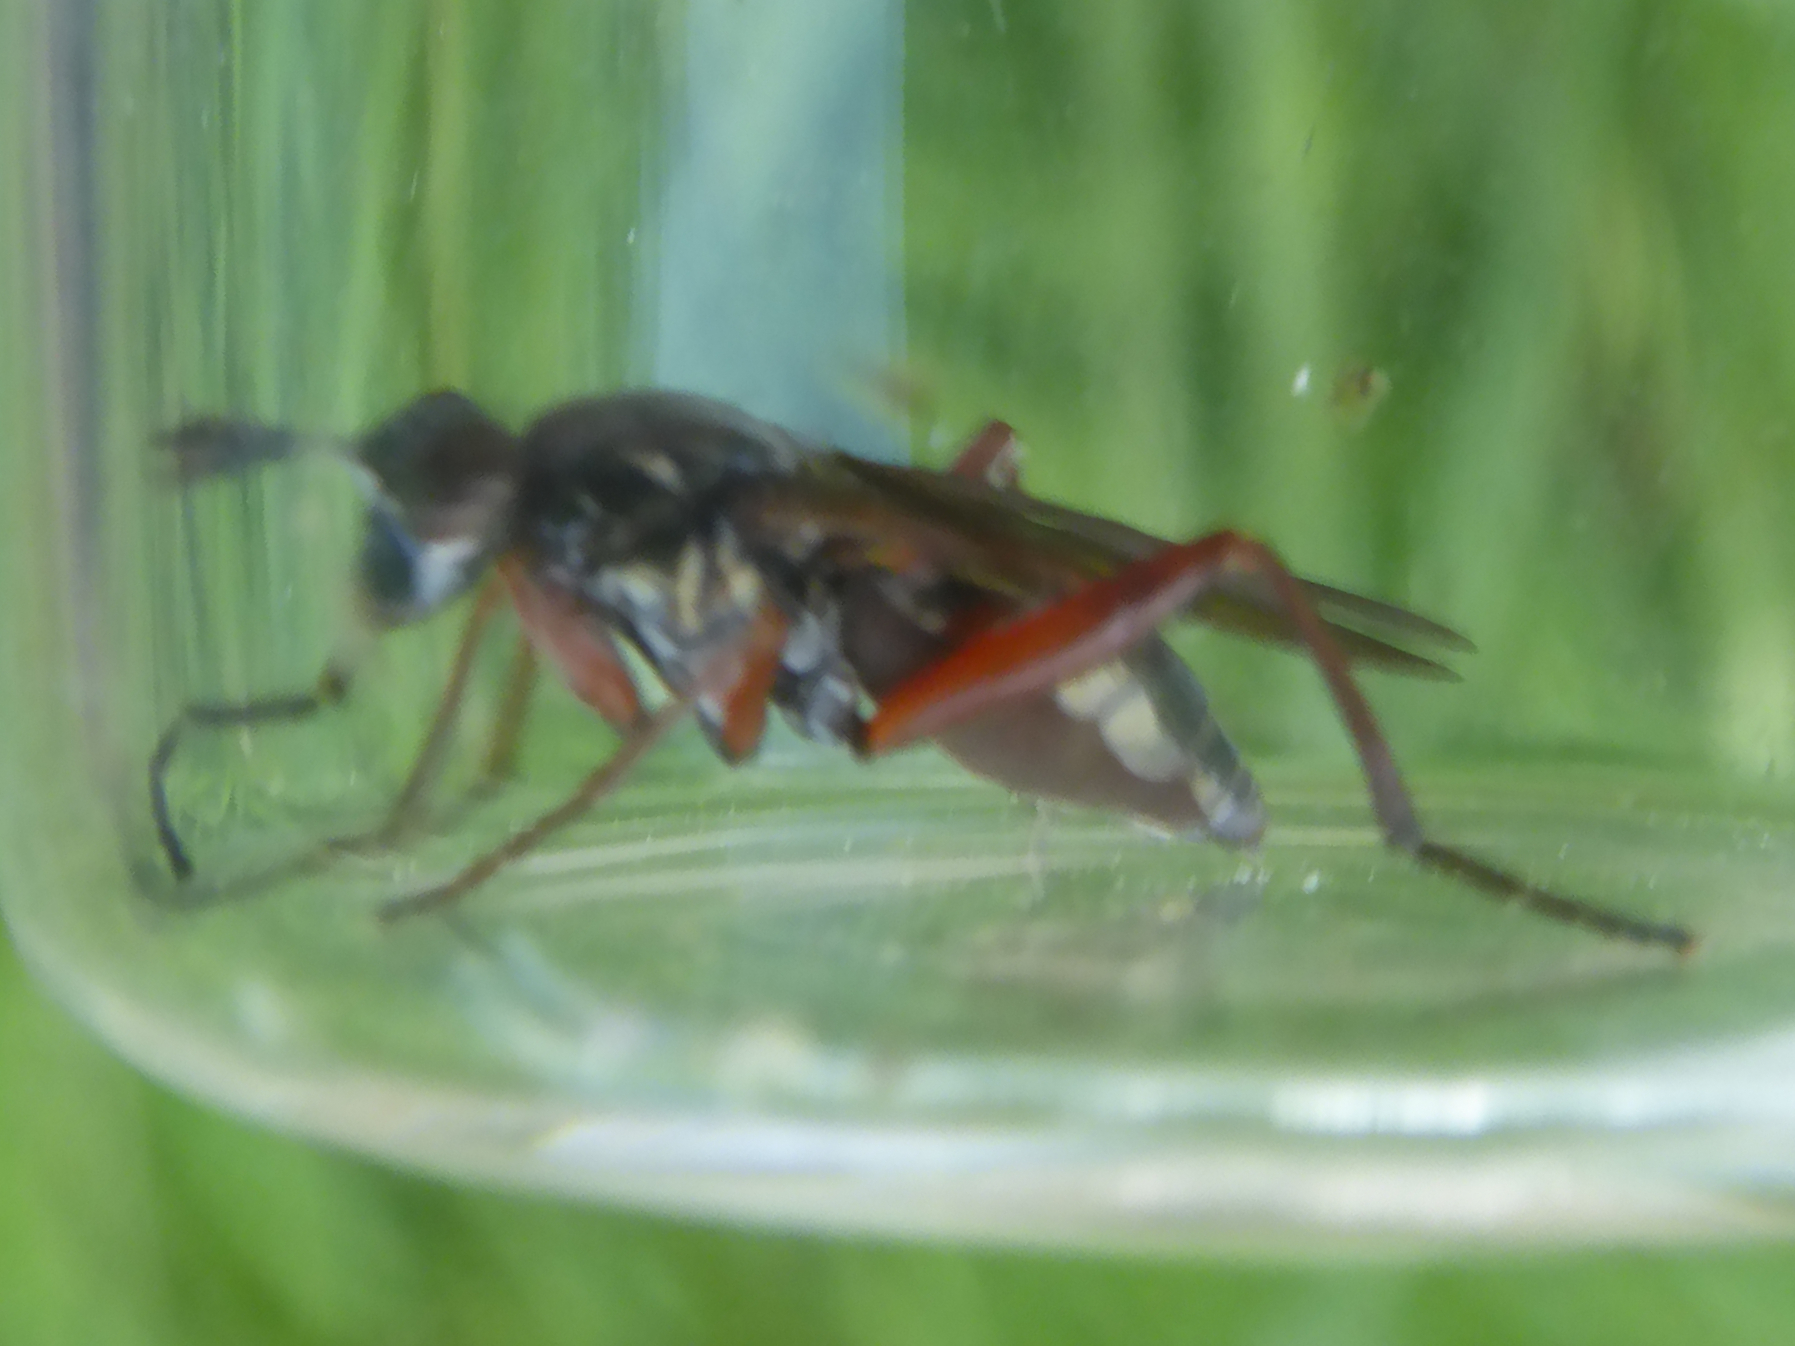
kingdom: Animalia
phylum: Arthropoda
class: Insecta
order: Diptera
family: Sciomyzidae
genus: Sepedon
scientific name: Sepedon sphegea
